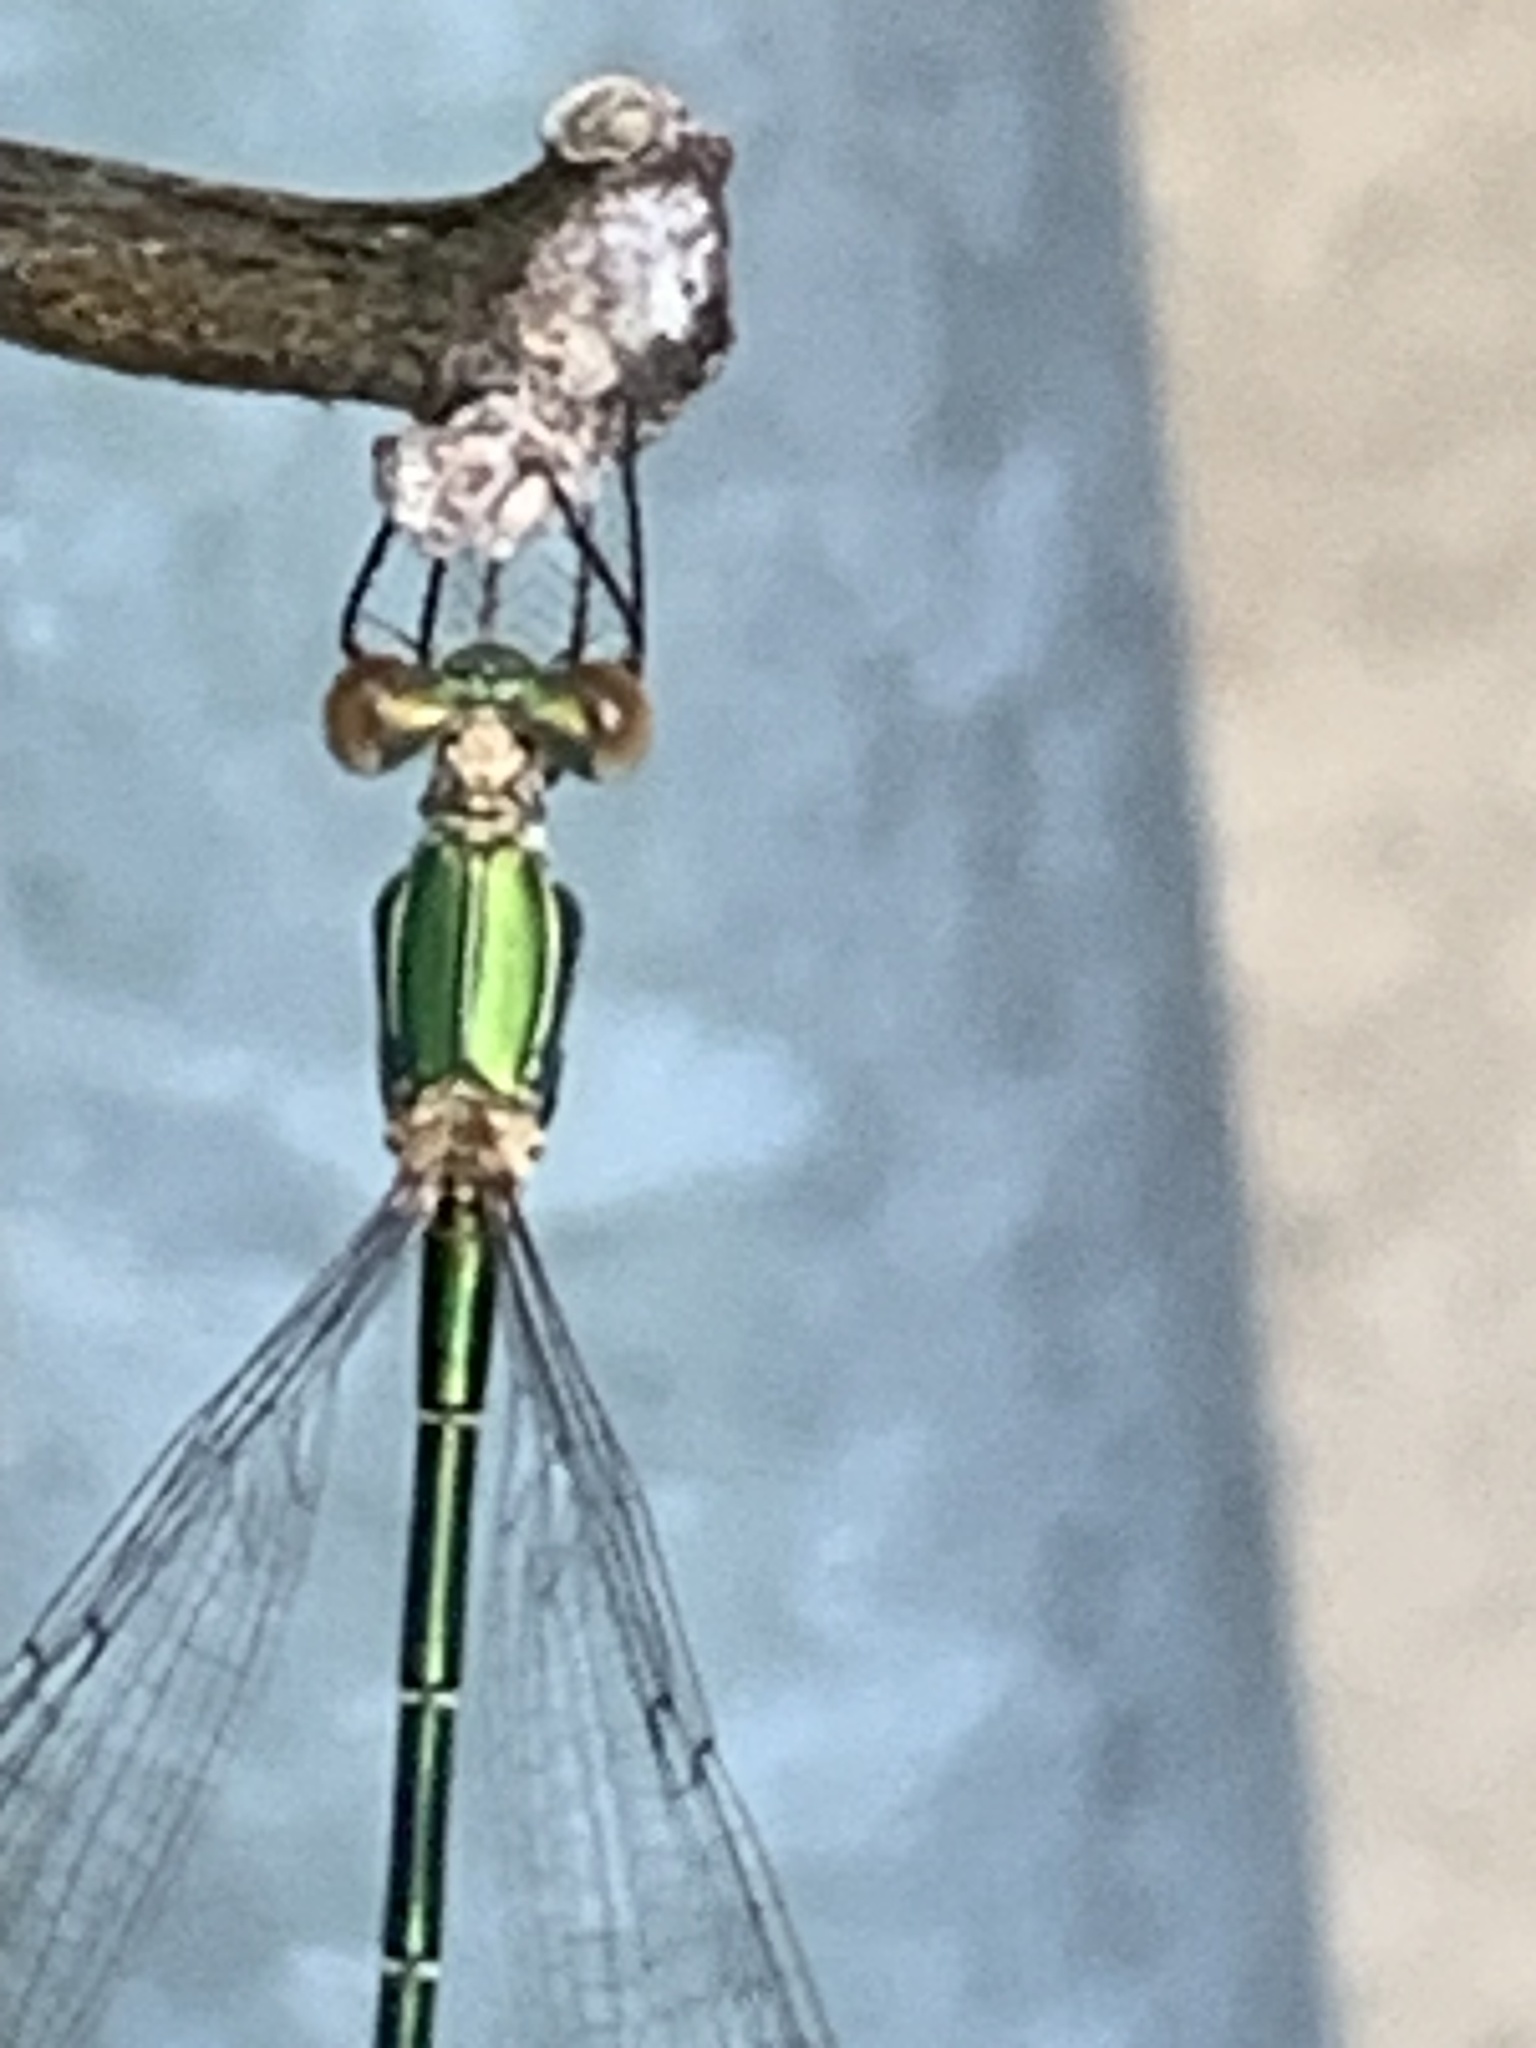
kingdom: Animalia
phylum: Arthropoda
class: Insecta
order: Odonata
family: Lestidae
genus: Chalcolestes
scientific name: Chalcolestes viridis
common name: Green emerald damselfly
